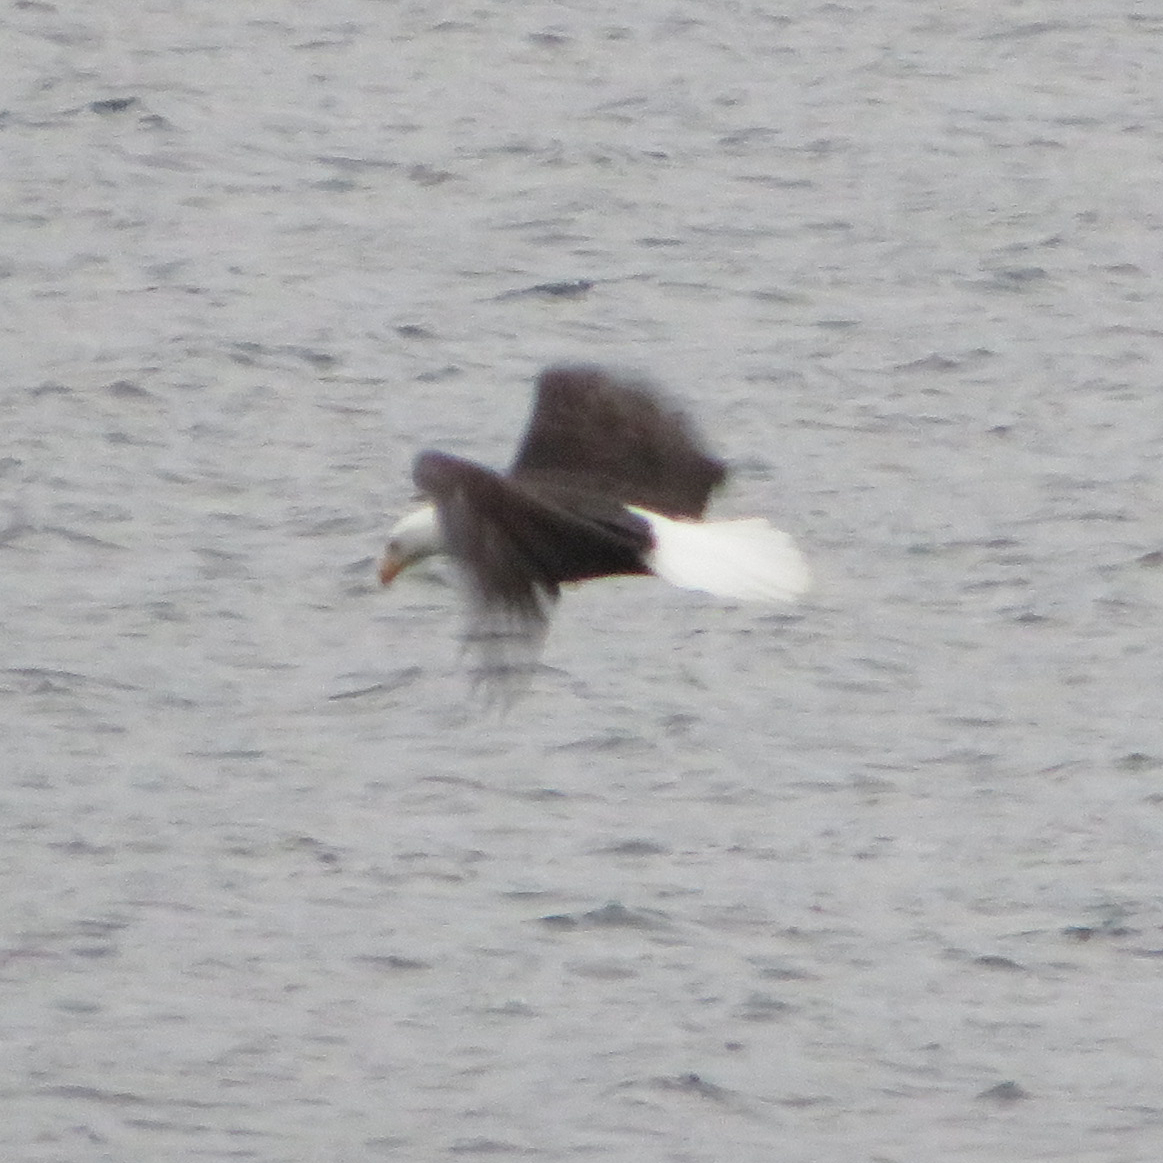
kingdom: Animalia
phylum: Chordata
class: Aves
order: Accipitriformes
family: Accipitridae
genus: Haliaeetus
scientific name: Haliaeetus leucocephalus
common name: Bald eagle
